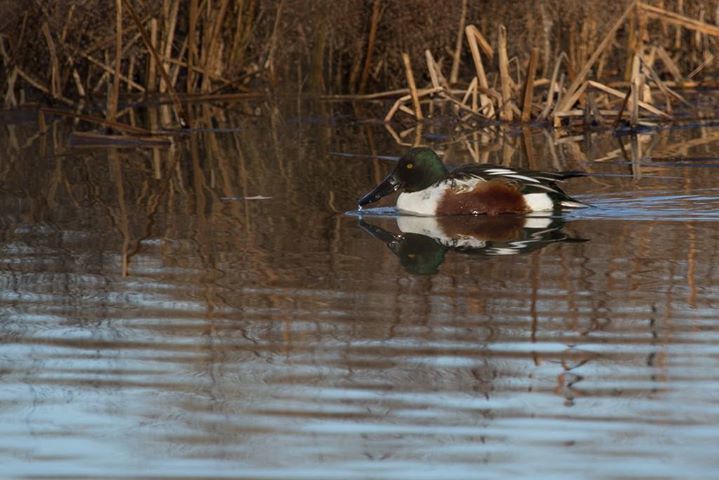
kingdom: Animalia
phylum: Chordata
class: Aves
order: Anseriformes
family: Anatidae
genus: Spatula
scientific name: Spatula clypeata
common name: Northern shoveler
